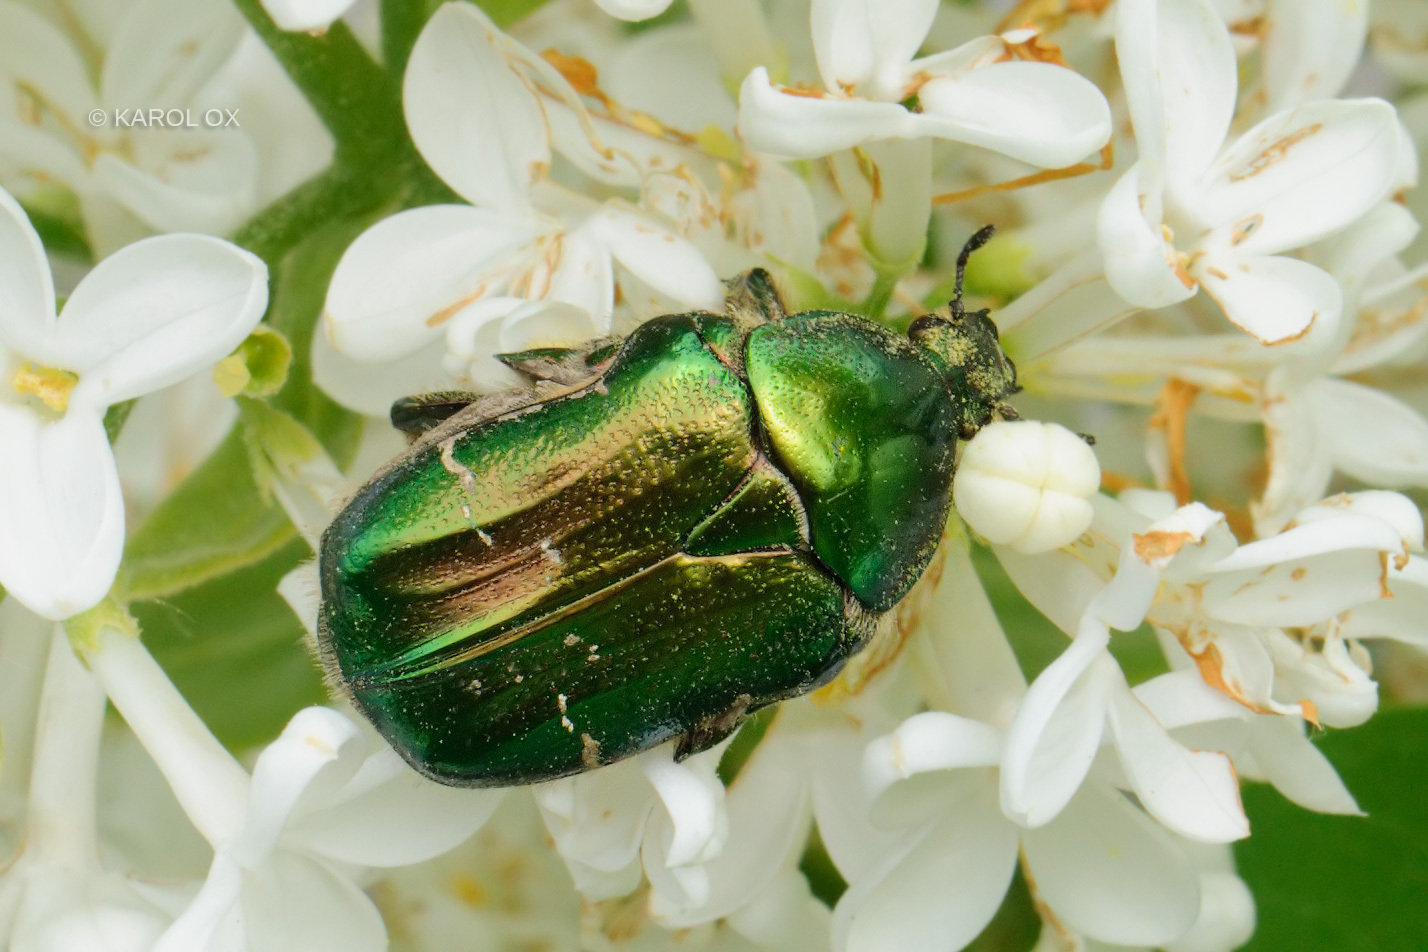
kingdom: Animalia
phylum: Arthropoda
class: Insecta
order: Coleoptera
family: Scarabaeidae
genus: Cetonia
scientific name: Cetonia aurata
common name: Rose chafer
